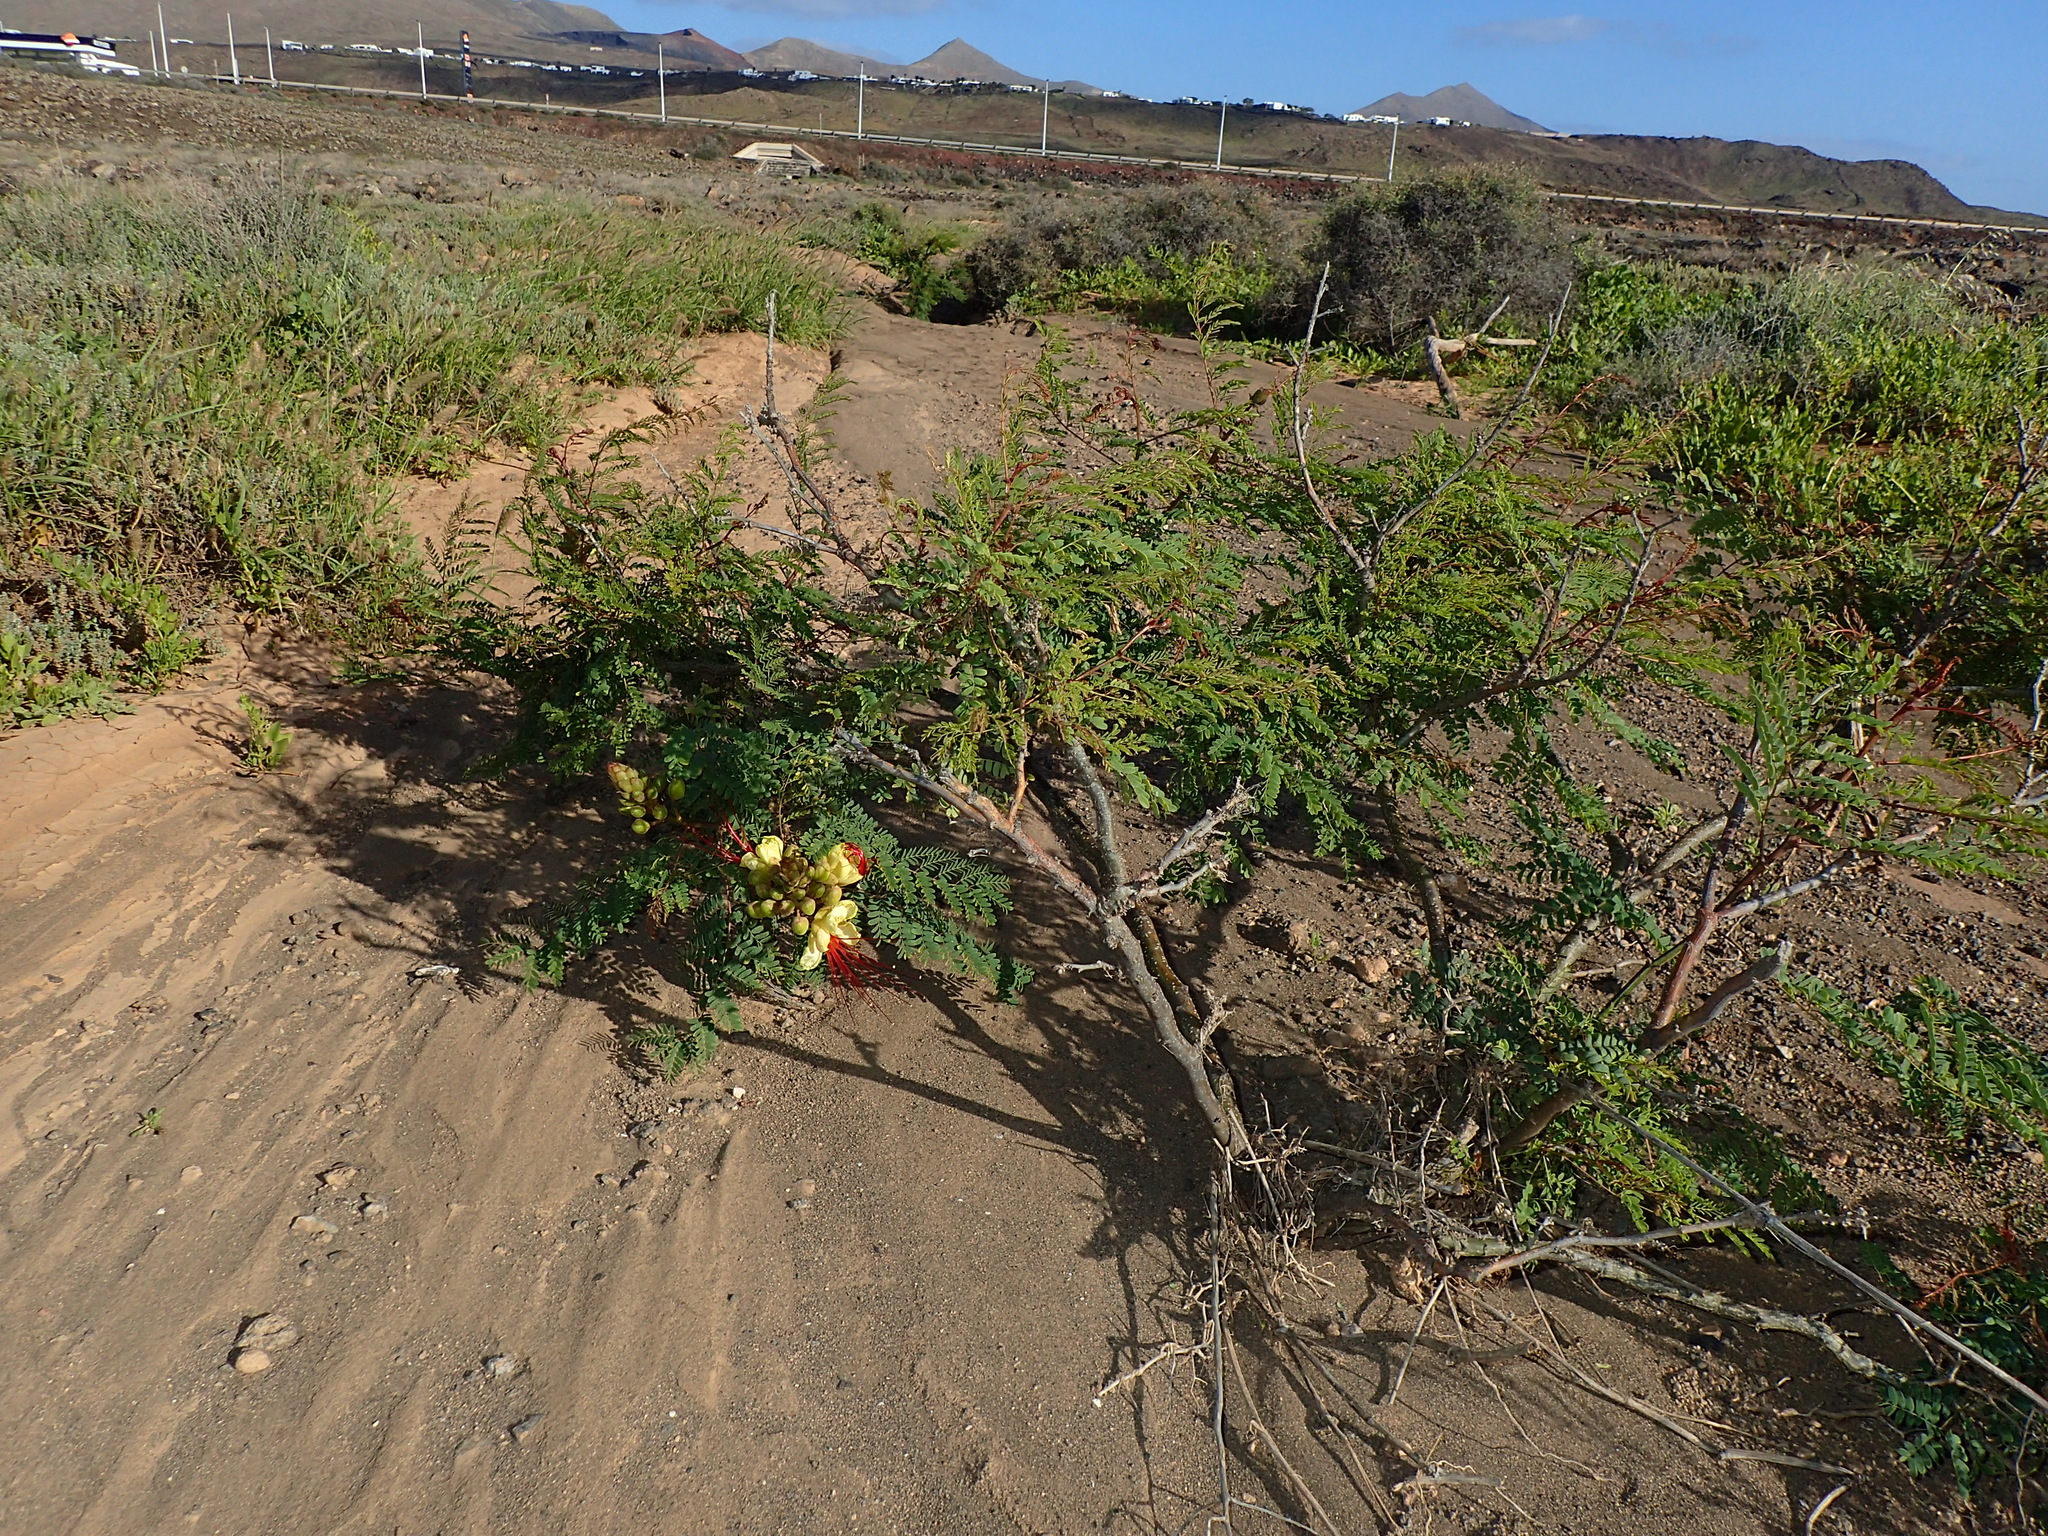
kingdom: Plantae
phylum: Tracheophyta
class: Magnoliopsida
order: Fabales
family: Fabaceae
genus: Erythrostemon
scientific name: Erythrostemon gilliesii
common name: Bird-of-paradise shrub
